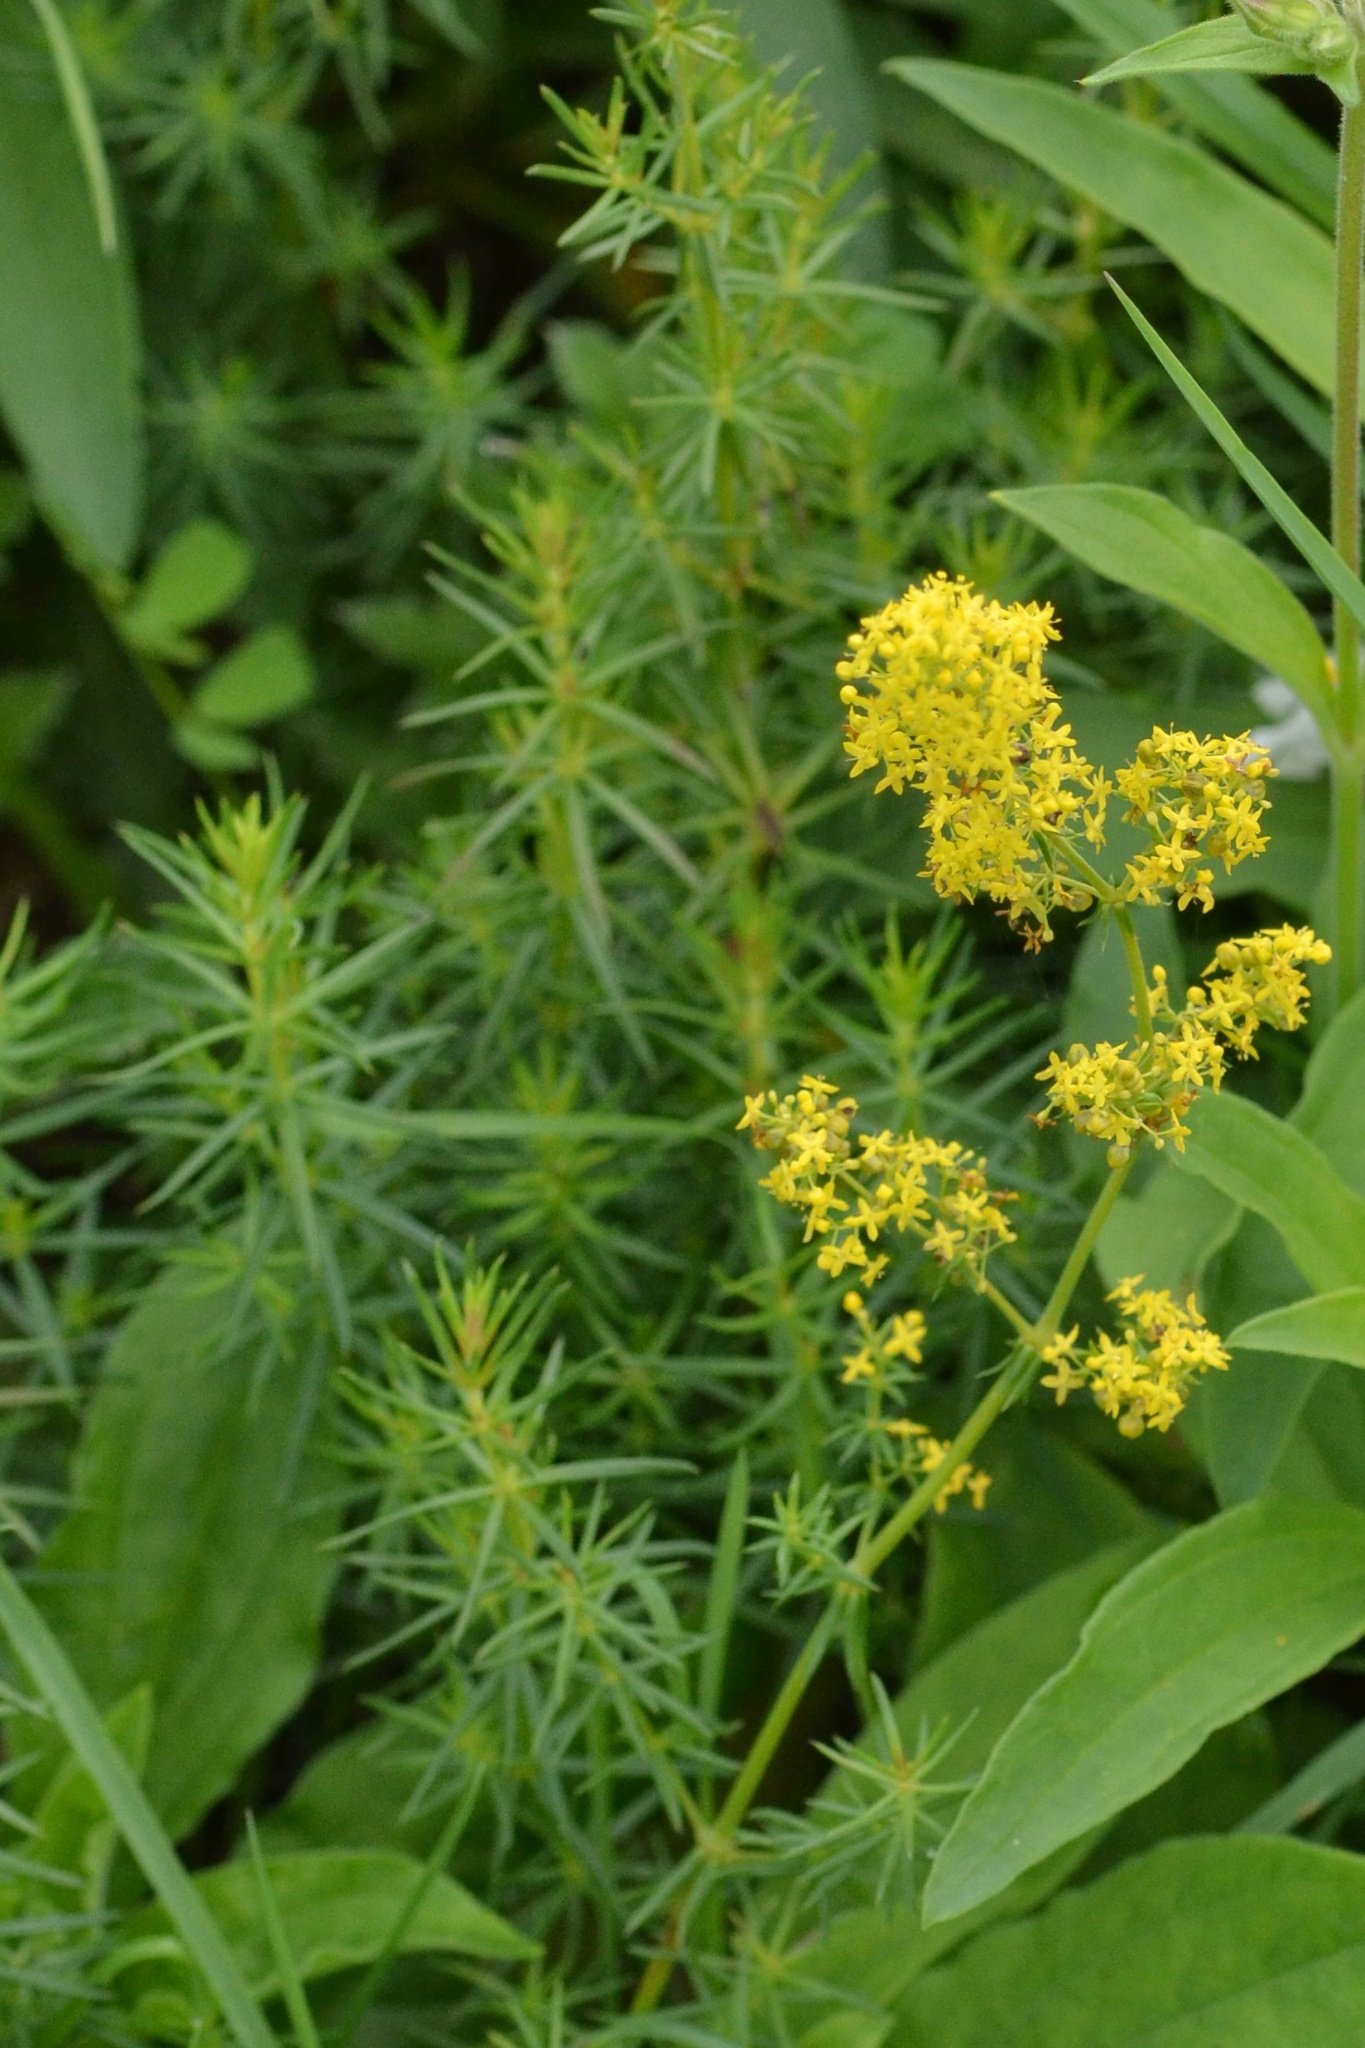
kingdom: Plantae
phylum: Tracheophyta
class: Magnoliopsida
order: Gentianales
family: Rubiaceae
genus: Galium
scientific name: Galium verum
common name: Lady's bedstraw
